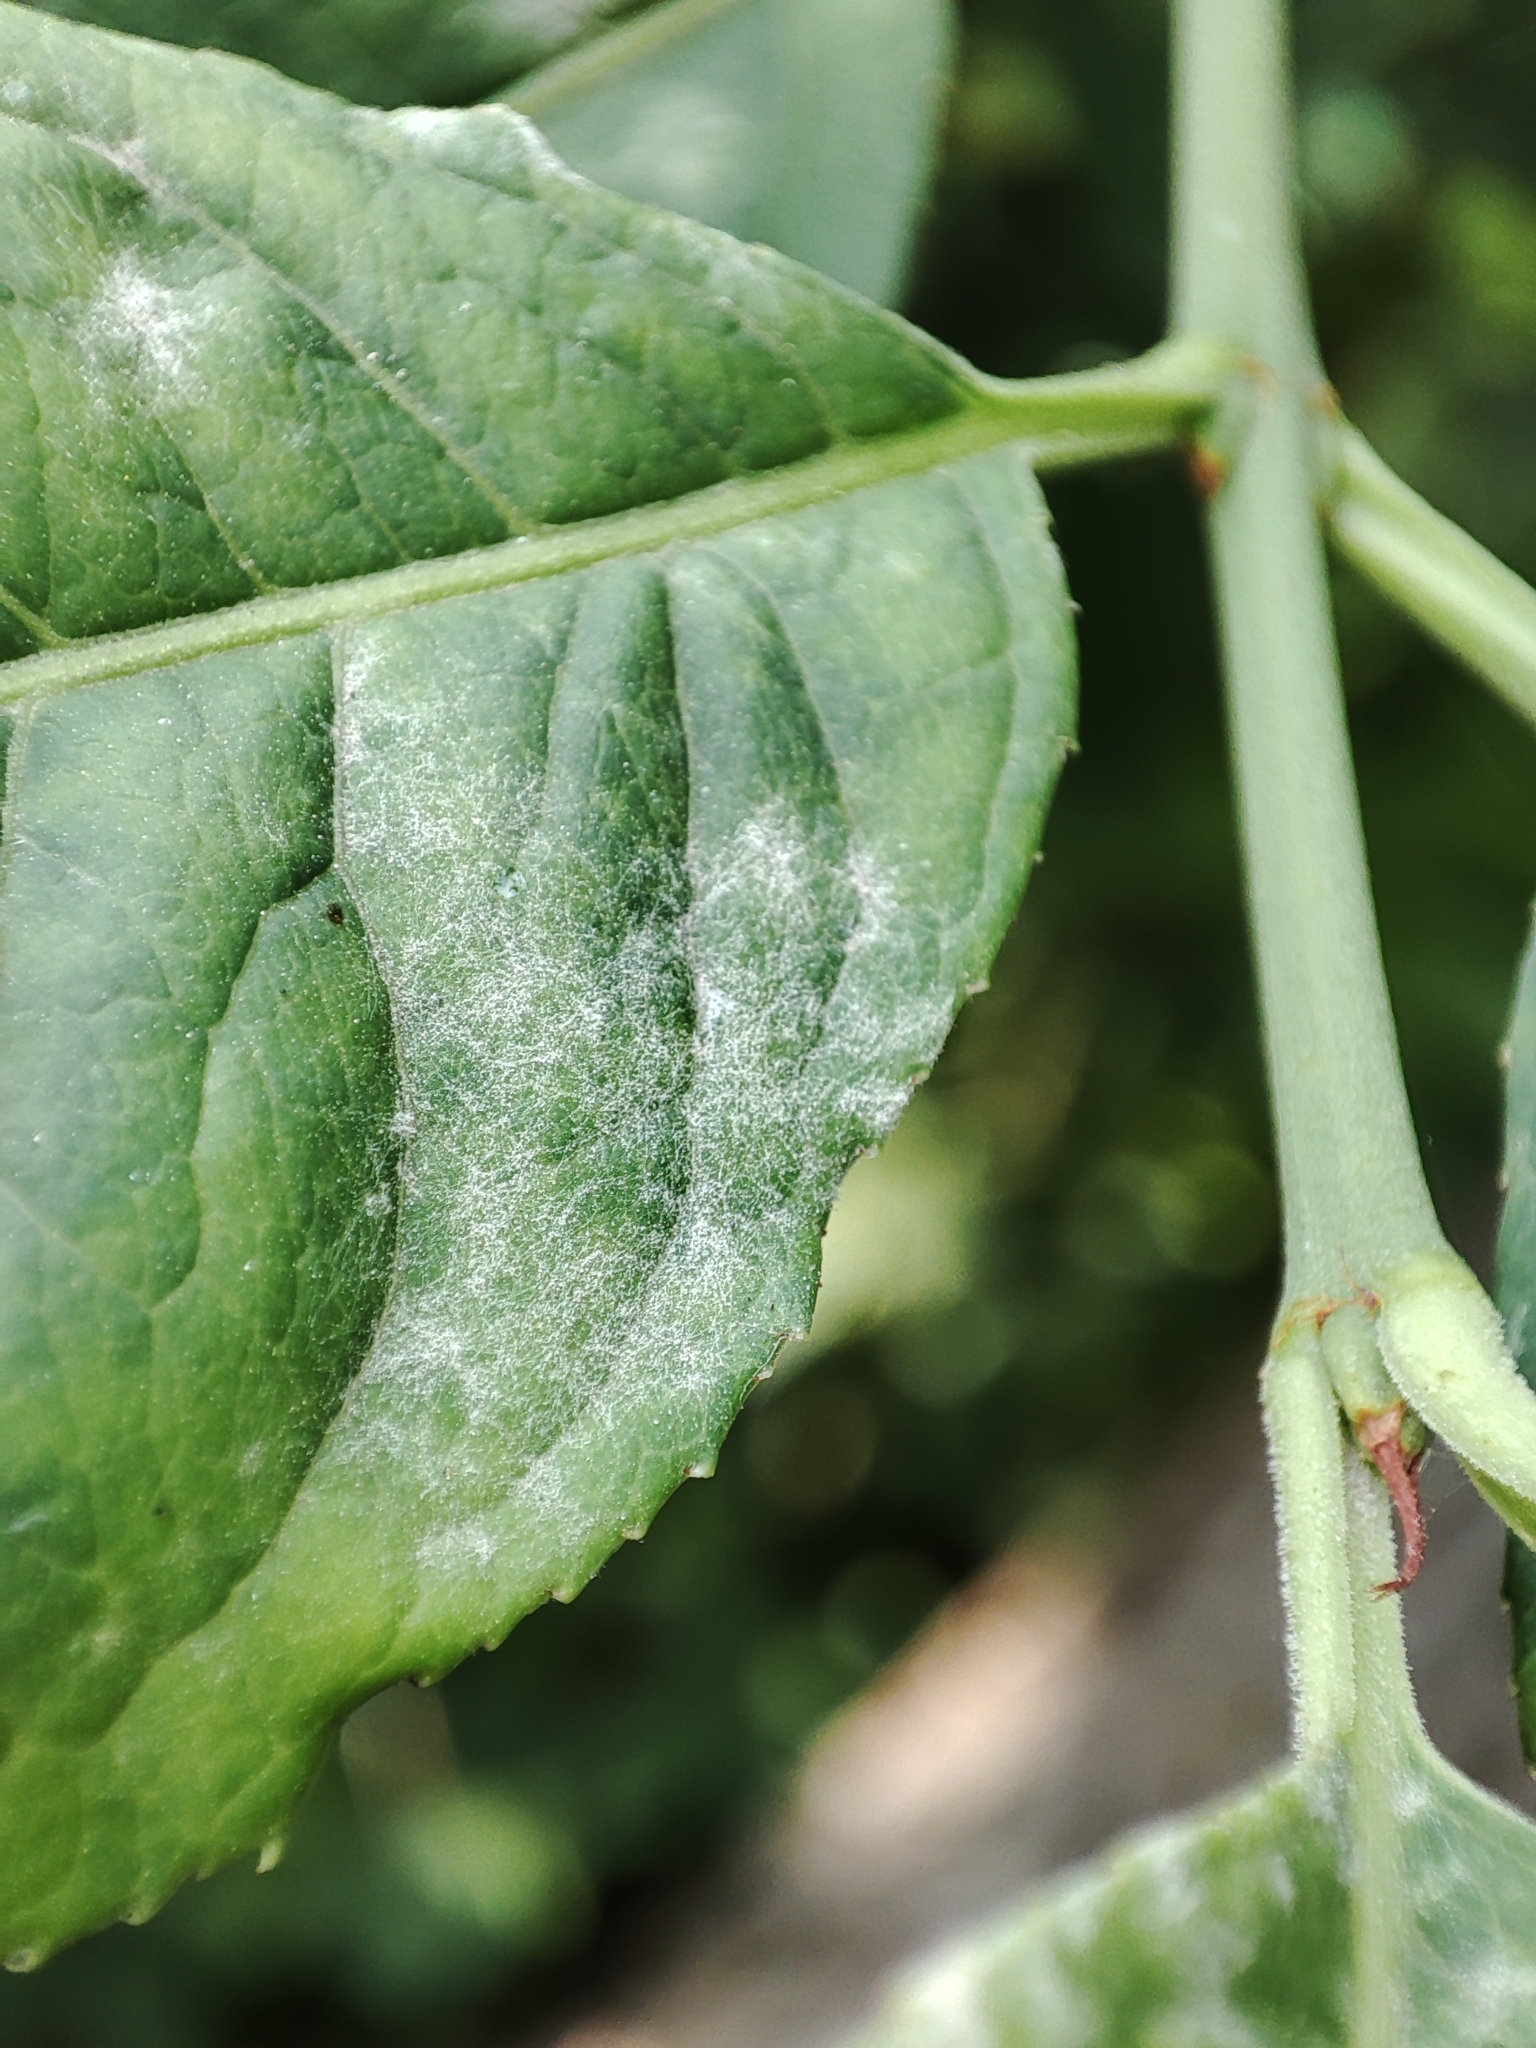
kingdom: Plantae
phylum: Tracheophyta
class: Magnoliopsida
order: Celastrales
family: Celastraceae
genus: Euonymus
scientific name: Euonymus europaeus
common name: Spindle
